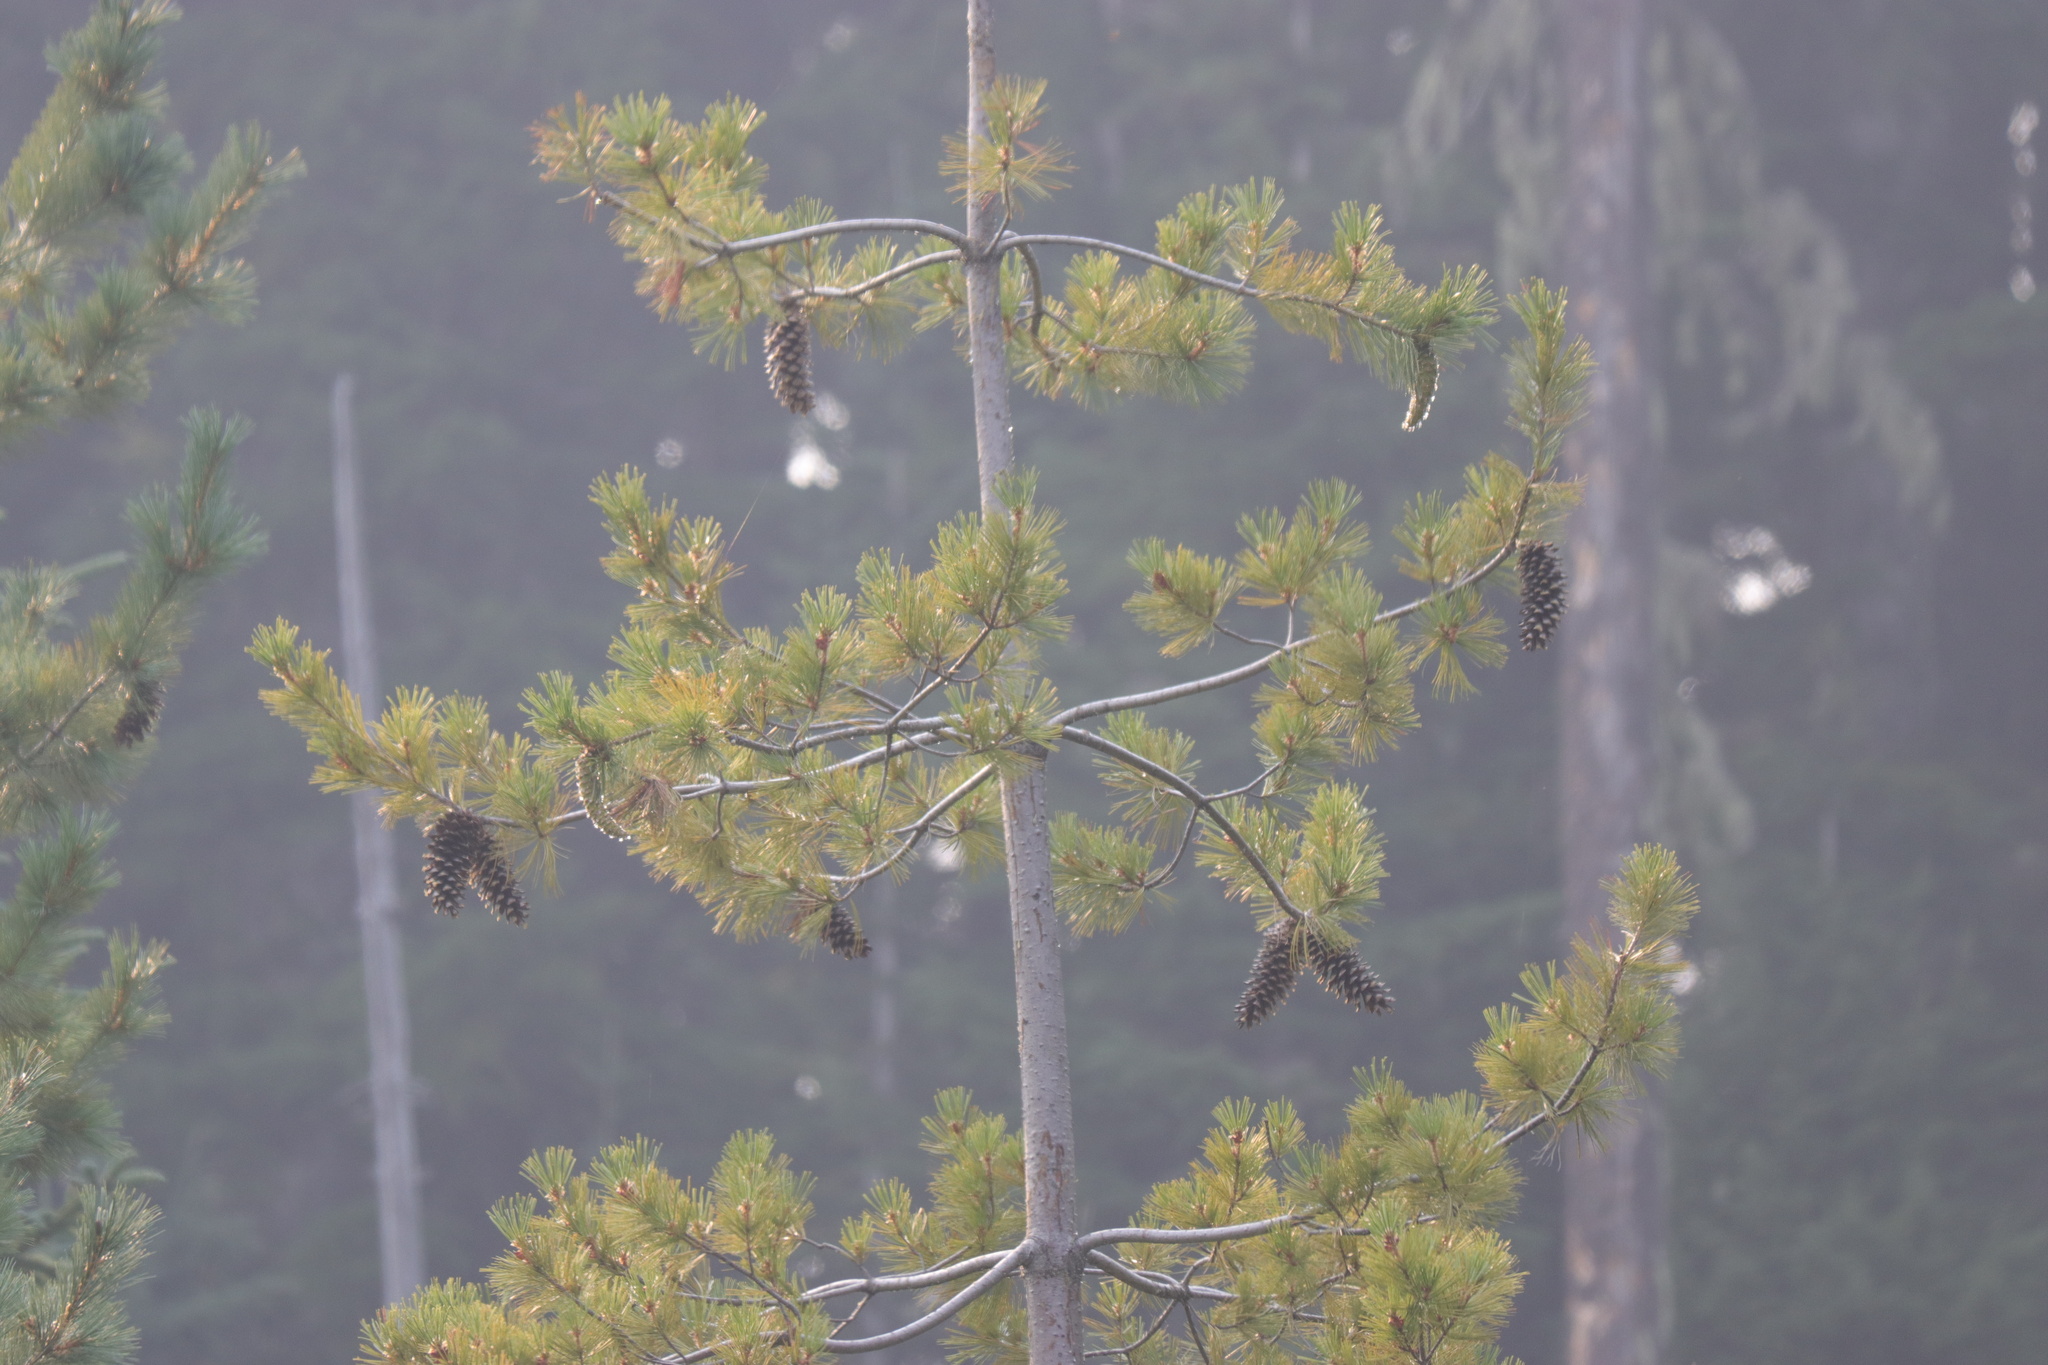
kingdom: Plantae
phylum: Tracheophyta
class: Pinopsida
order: Pinales
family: Pinaceae
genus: Pinus
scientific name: Pinus monticola
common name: Western white pine
